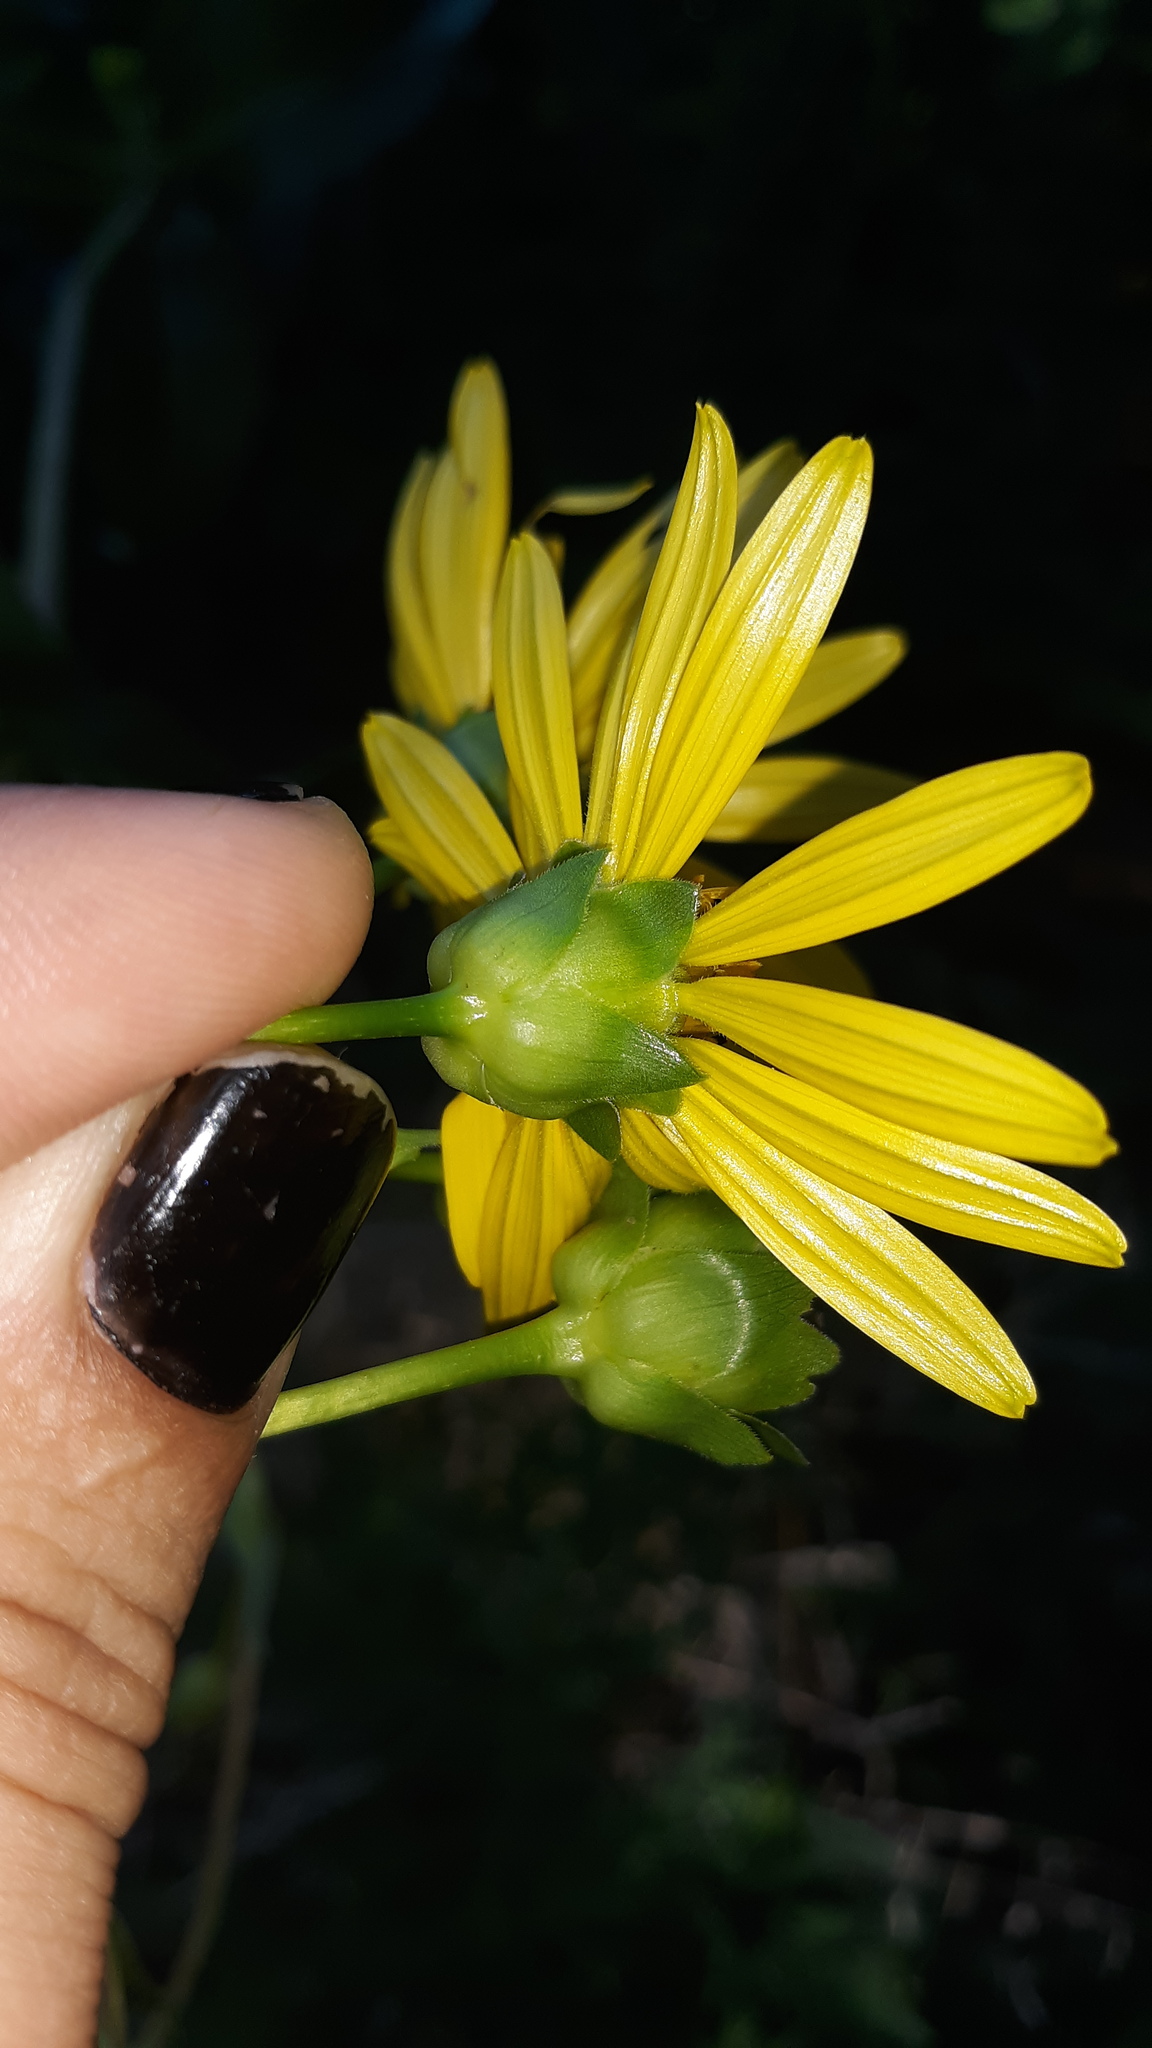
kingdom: Plantae
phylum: Tracheophyta
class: Magnoliopsida
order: Asterales
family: Asteraceae
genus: Silphium
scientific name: Silphium asteriscus
